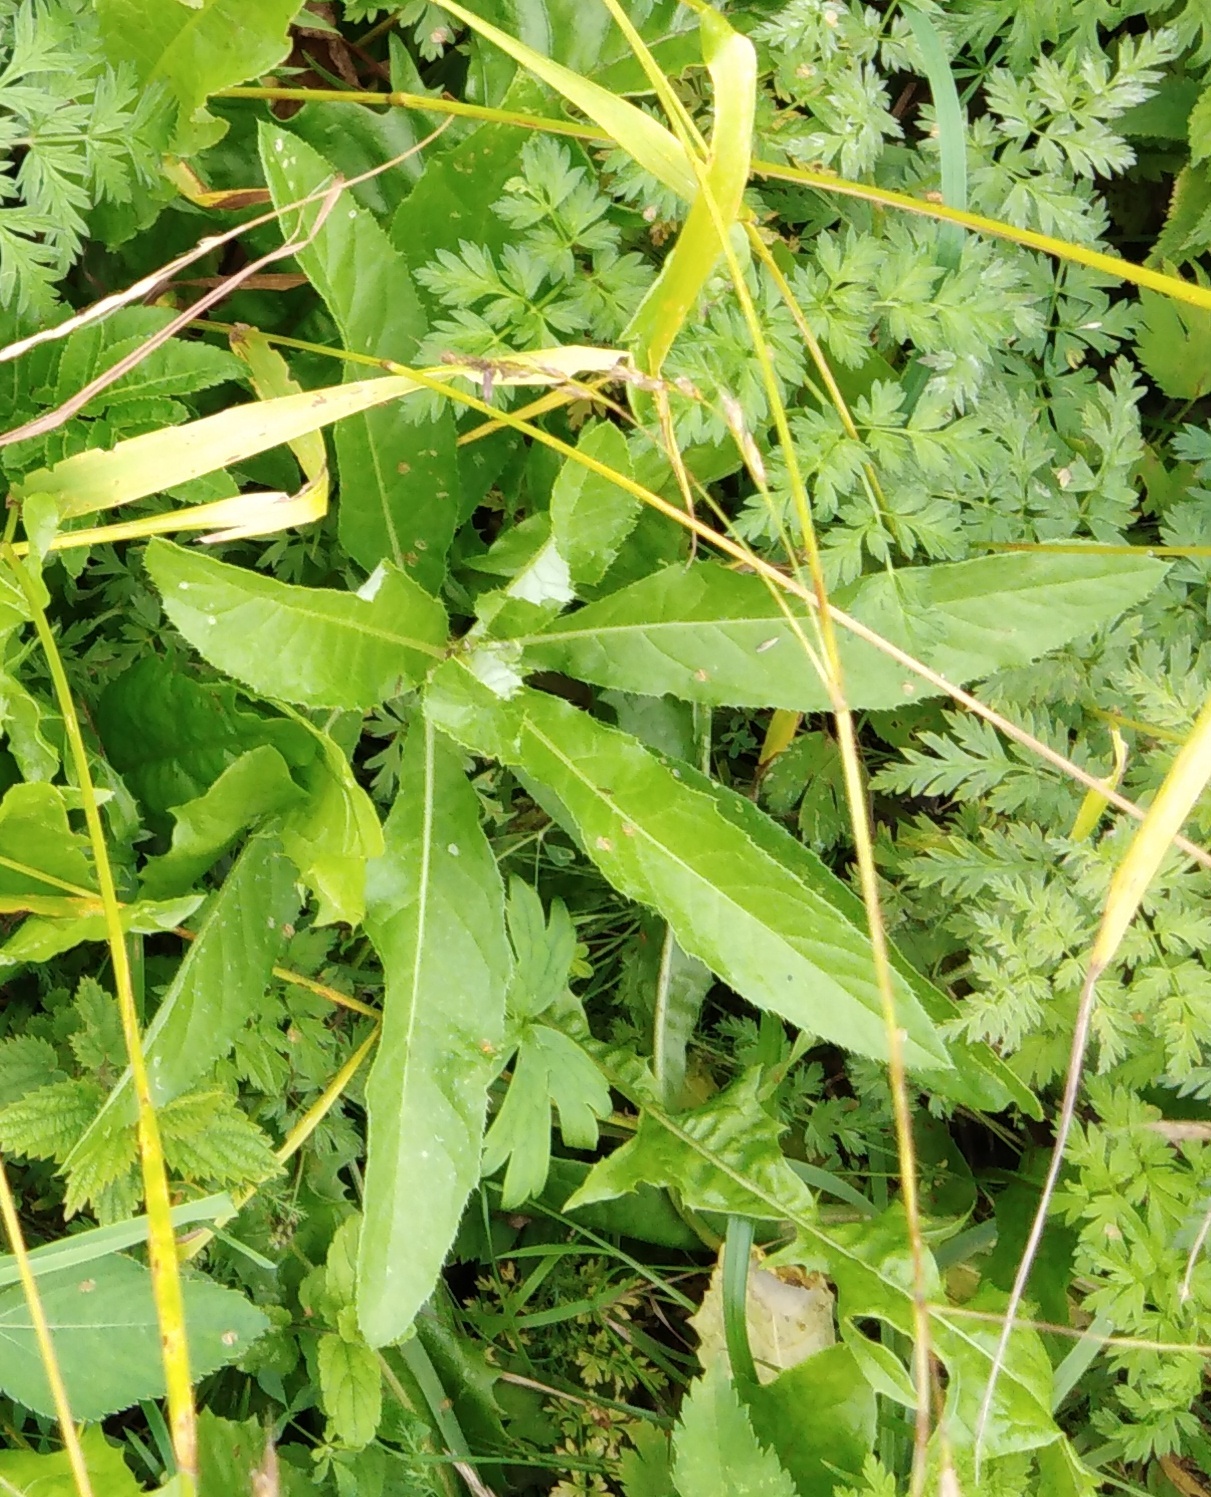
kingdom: Plantae
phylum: Tracheophyta
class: Magnoliopsida
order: Asterales
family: Asteraceae
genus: Cirsium
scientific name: Cirsium arvense
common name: Creeping thistle
